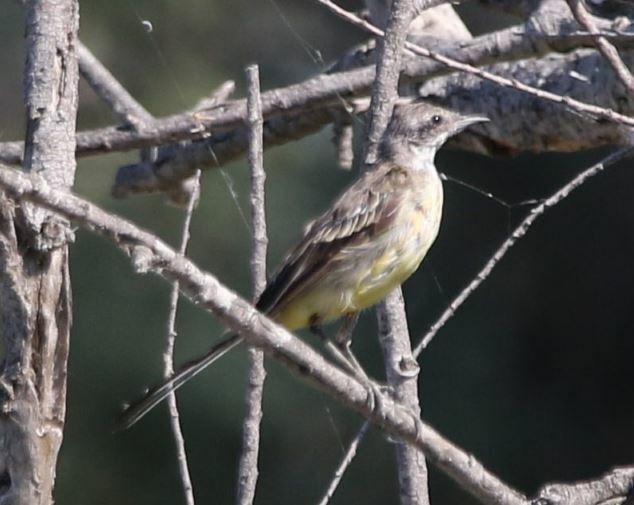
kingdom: Animalia
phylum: Chordata
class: Aves
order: Passeriformes
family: Motacillidae
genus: Motacilla
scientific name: Motacilla flava
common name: Western yellow wagtail
